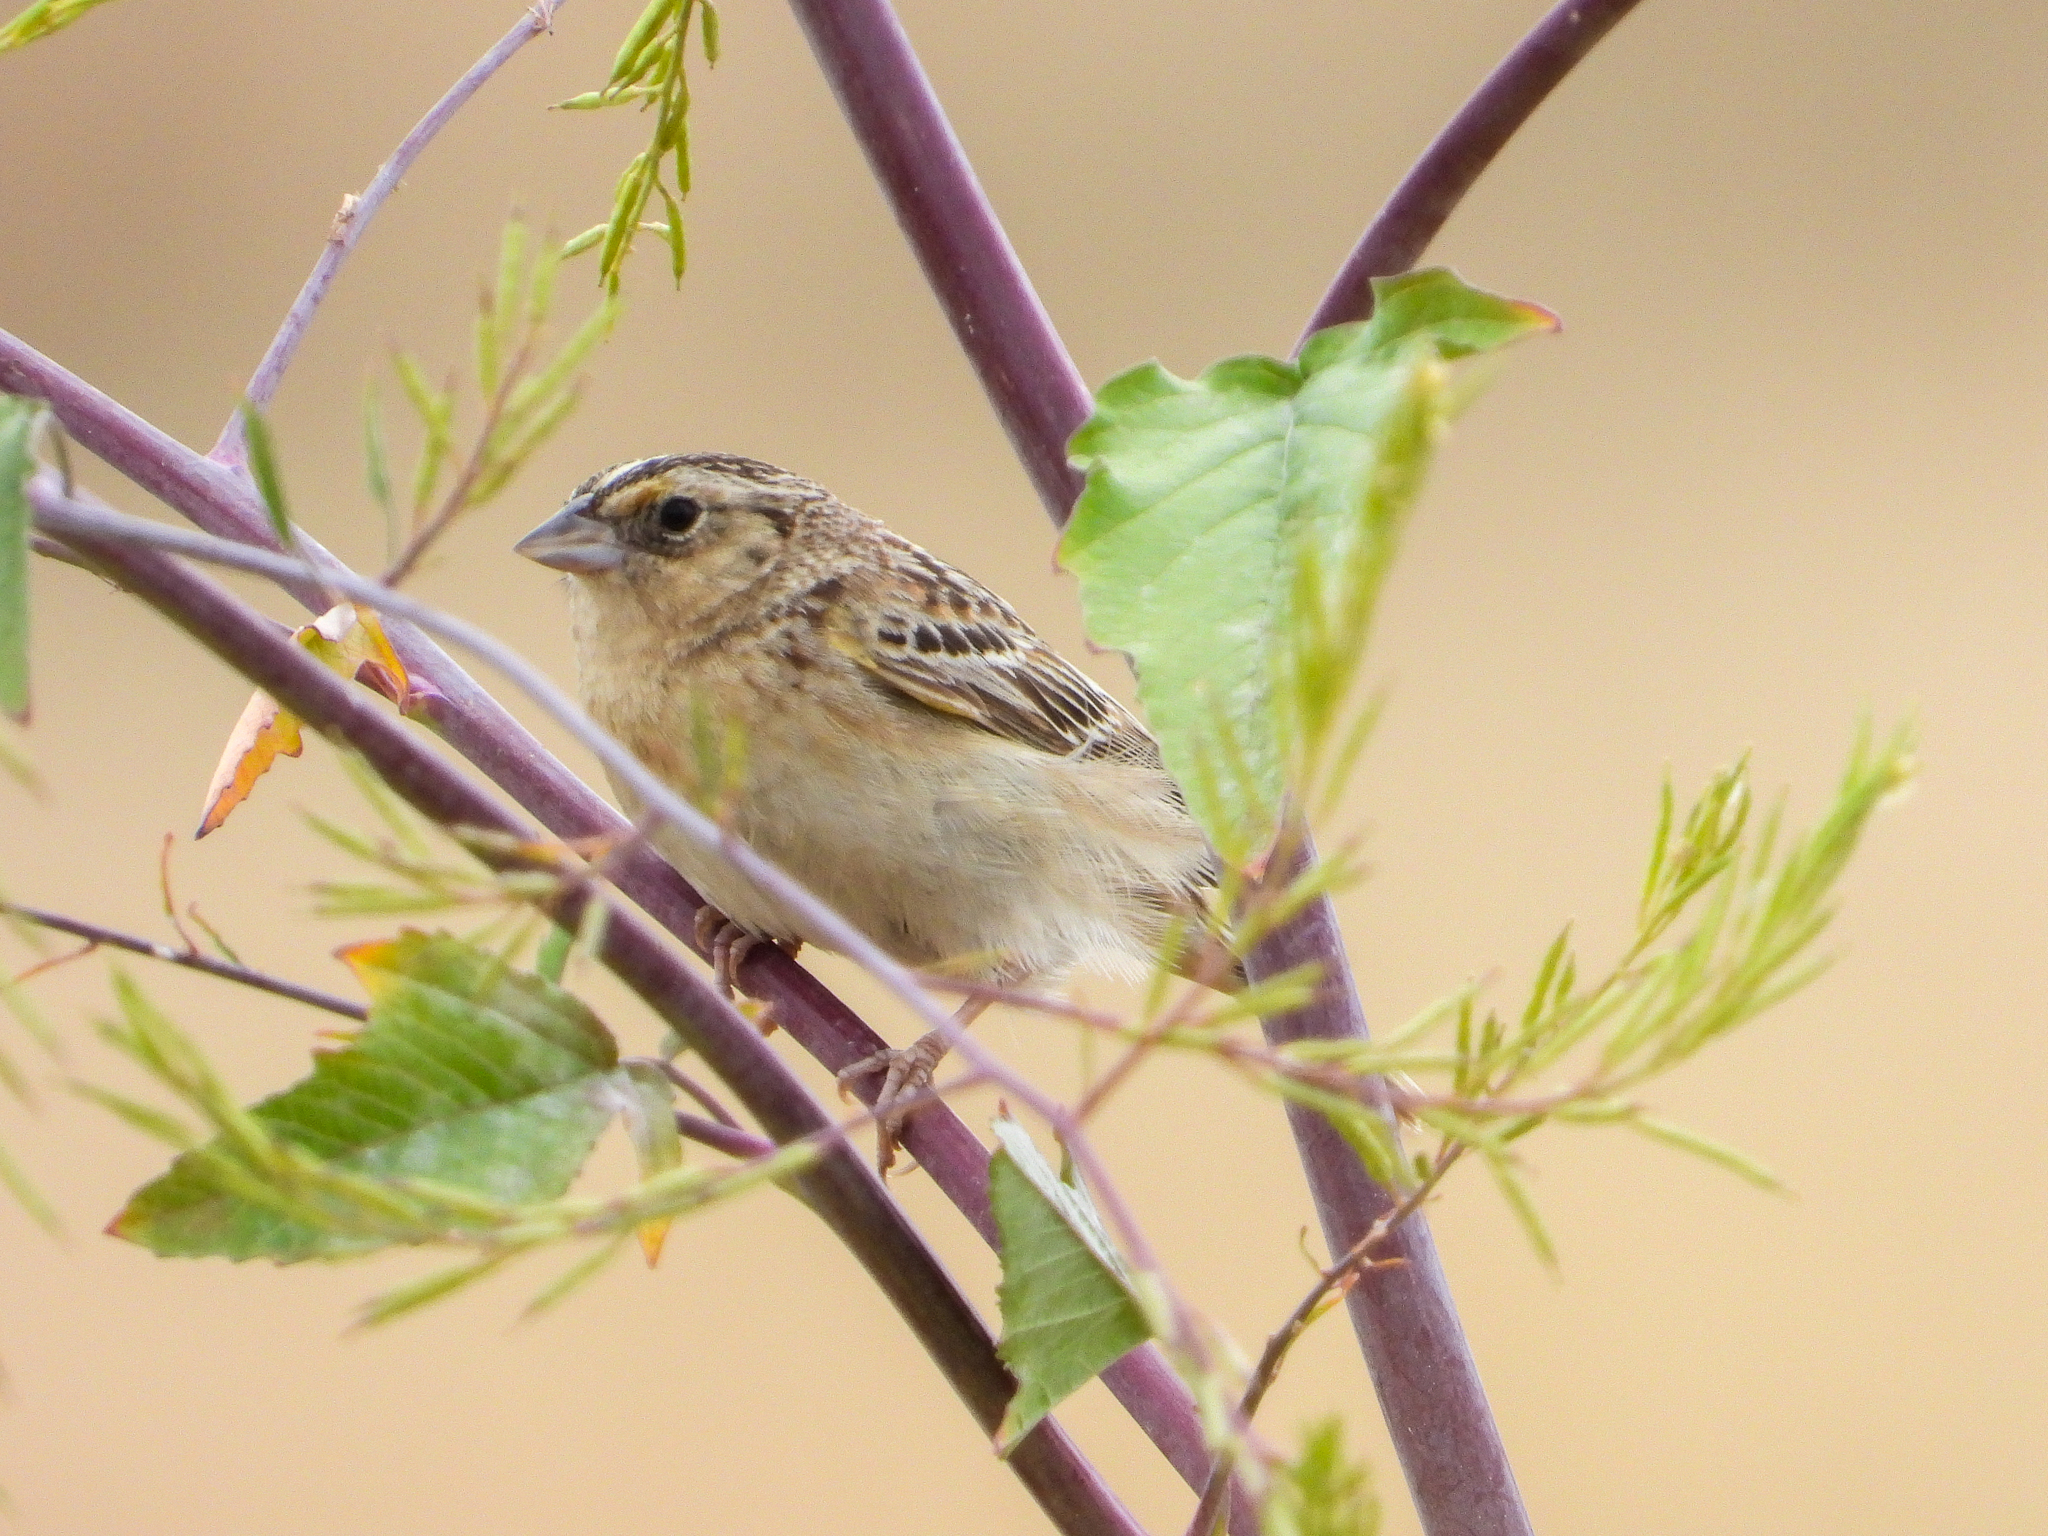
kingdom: Animalia
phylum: Chordata
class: Aves
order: Passeriformes
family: Passerellidae
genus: Ammodramus
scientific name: Ammodramus savannarum
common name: Grasshopper sparrow
